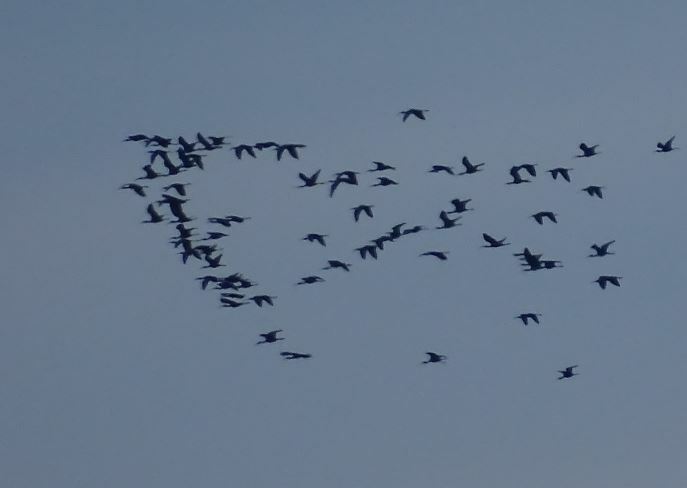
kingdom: Animalia
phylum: Chordata
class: Aves
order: Pelecaniformes
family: Threskiornithidae
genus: Plegadis
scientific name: Plegadis falcinellus
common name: Glossy ibis
